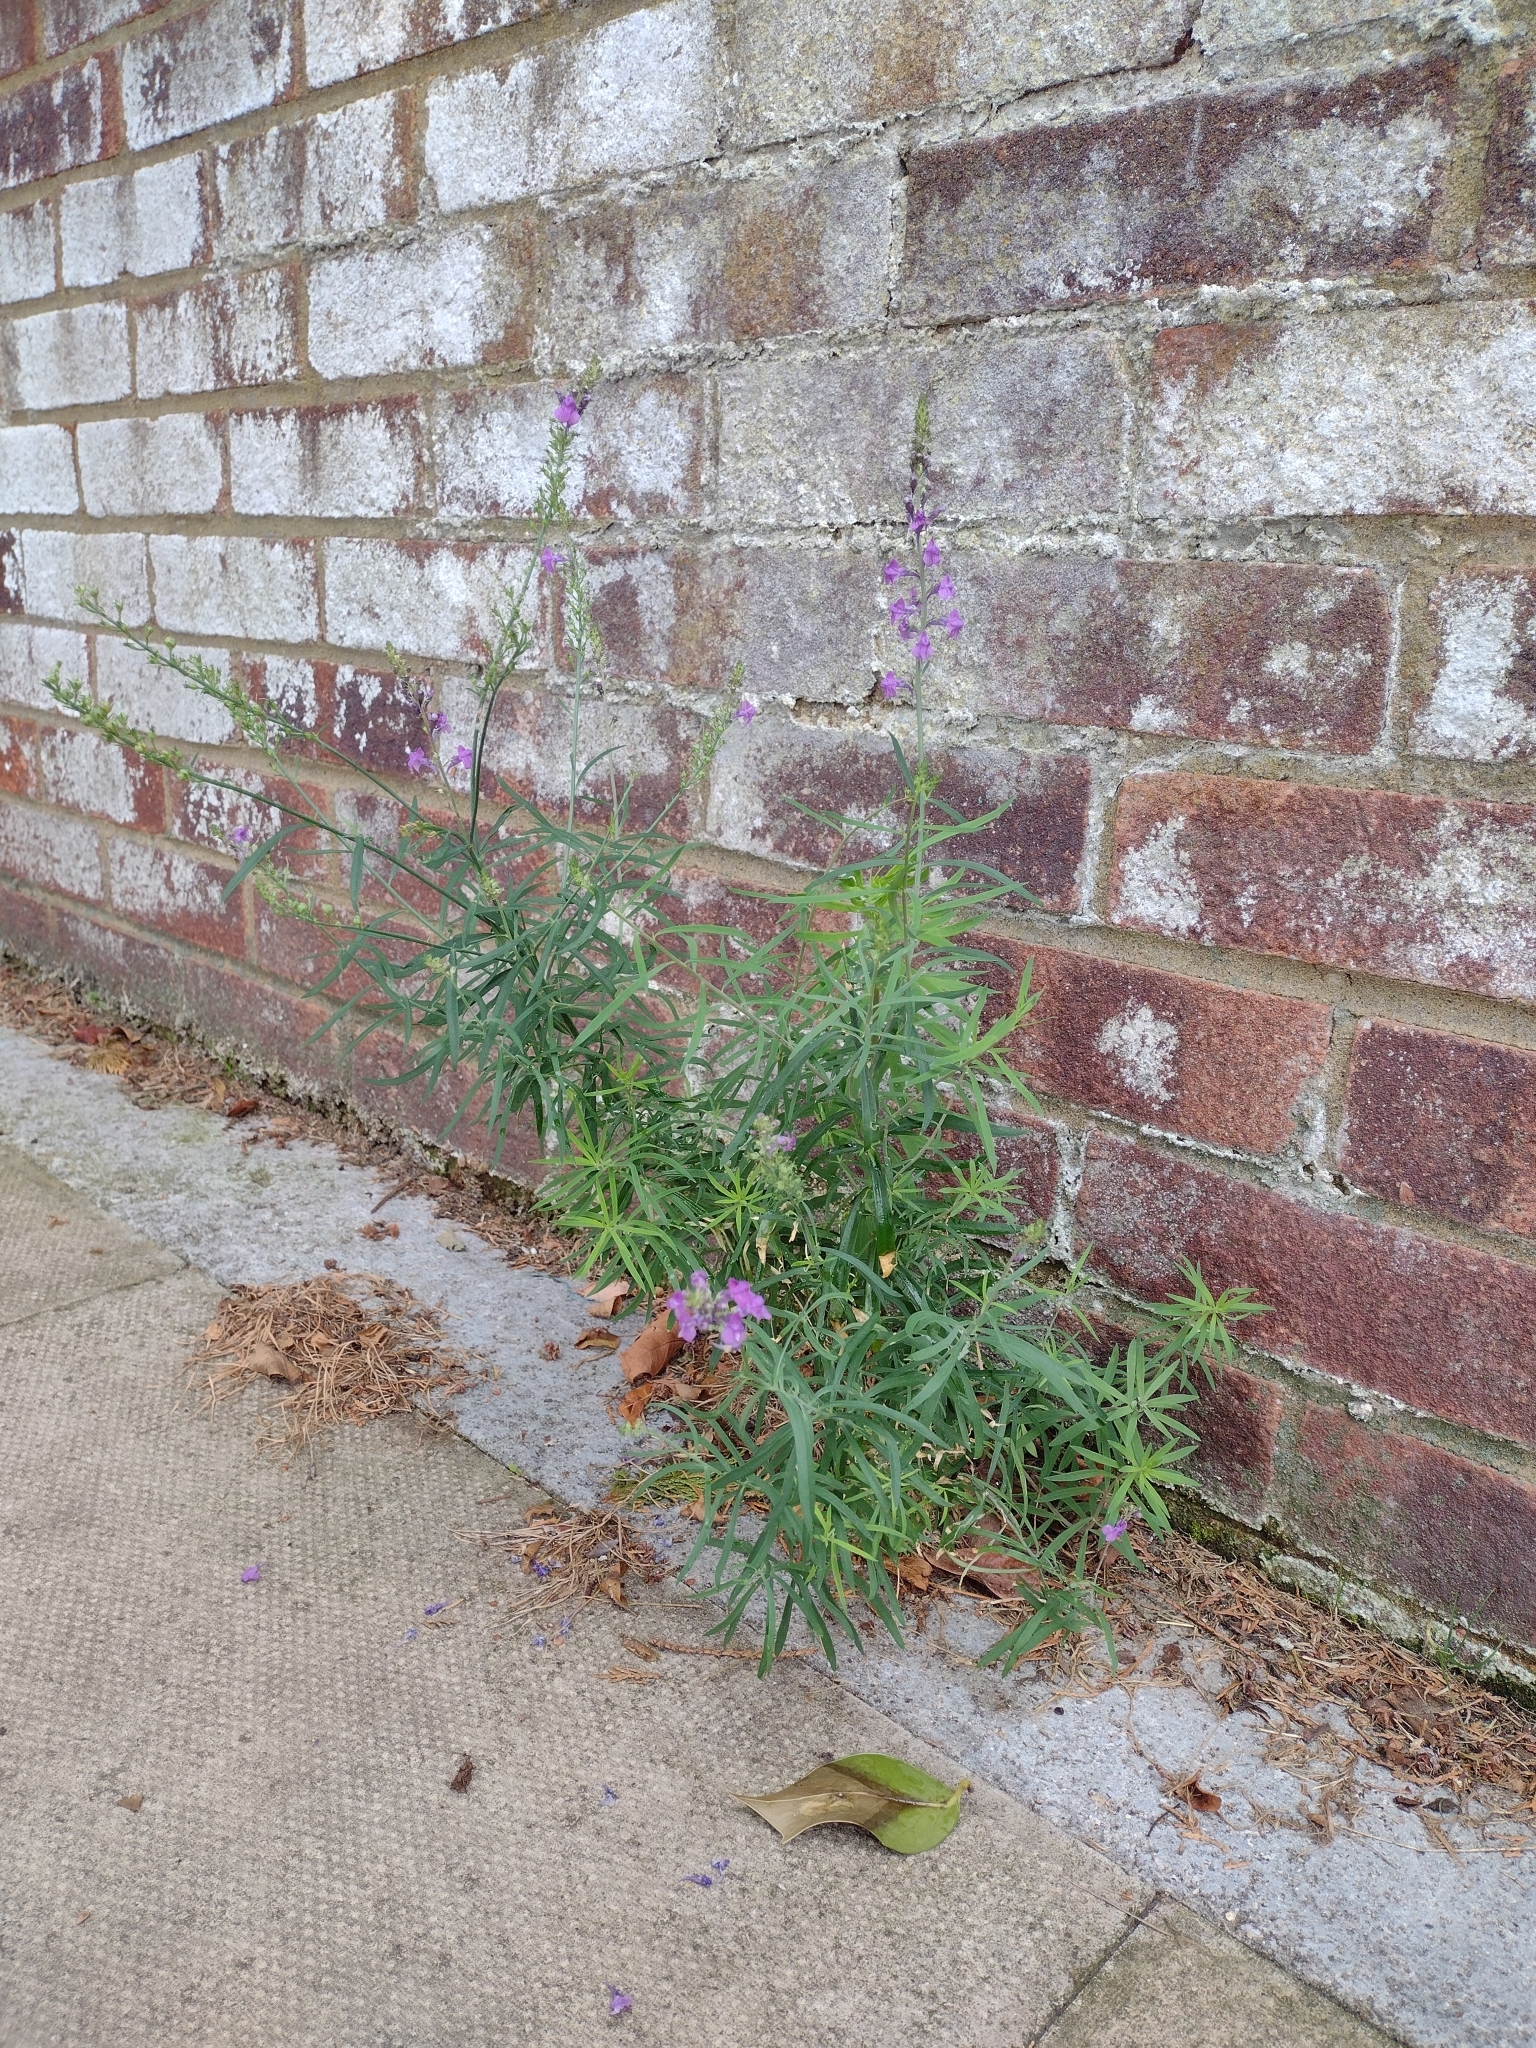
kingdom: Plantae
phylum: Tracheophyta
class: Magnoliopsida
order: Lamiales
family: Plantaginaceae
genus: Linaria
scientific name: Linaria purpurea
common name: Purple toadflax
